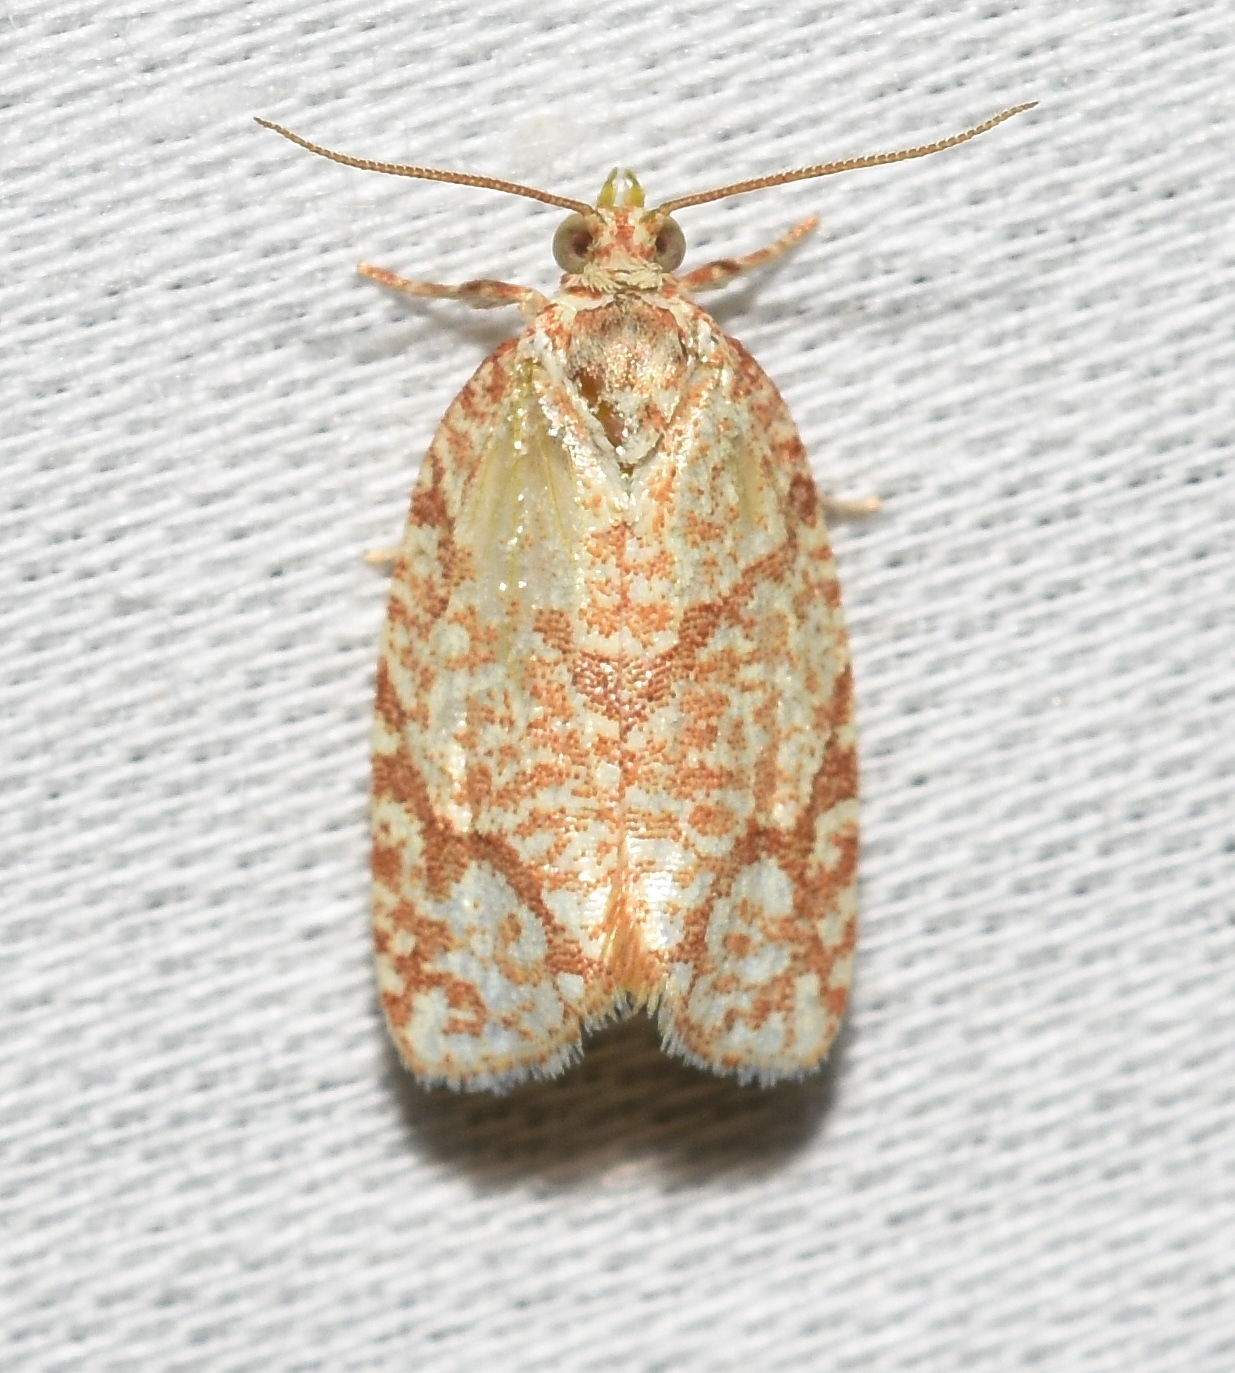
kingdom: Animalia
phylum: Arthropoda
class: Insecta
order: Lepidoptera
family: Tortricidae
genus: Argyrotaenia
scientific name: Argyrotaenia quercifoliana
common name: Yellow-winged oak leafroller moth
